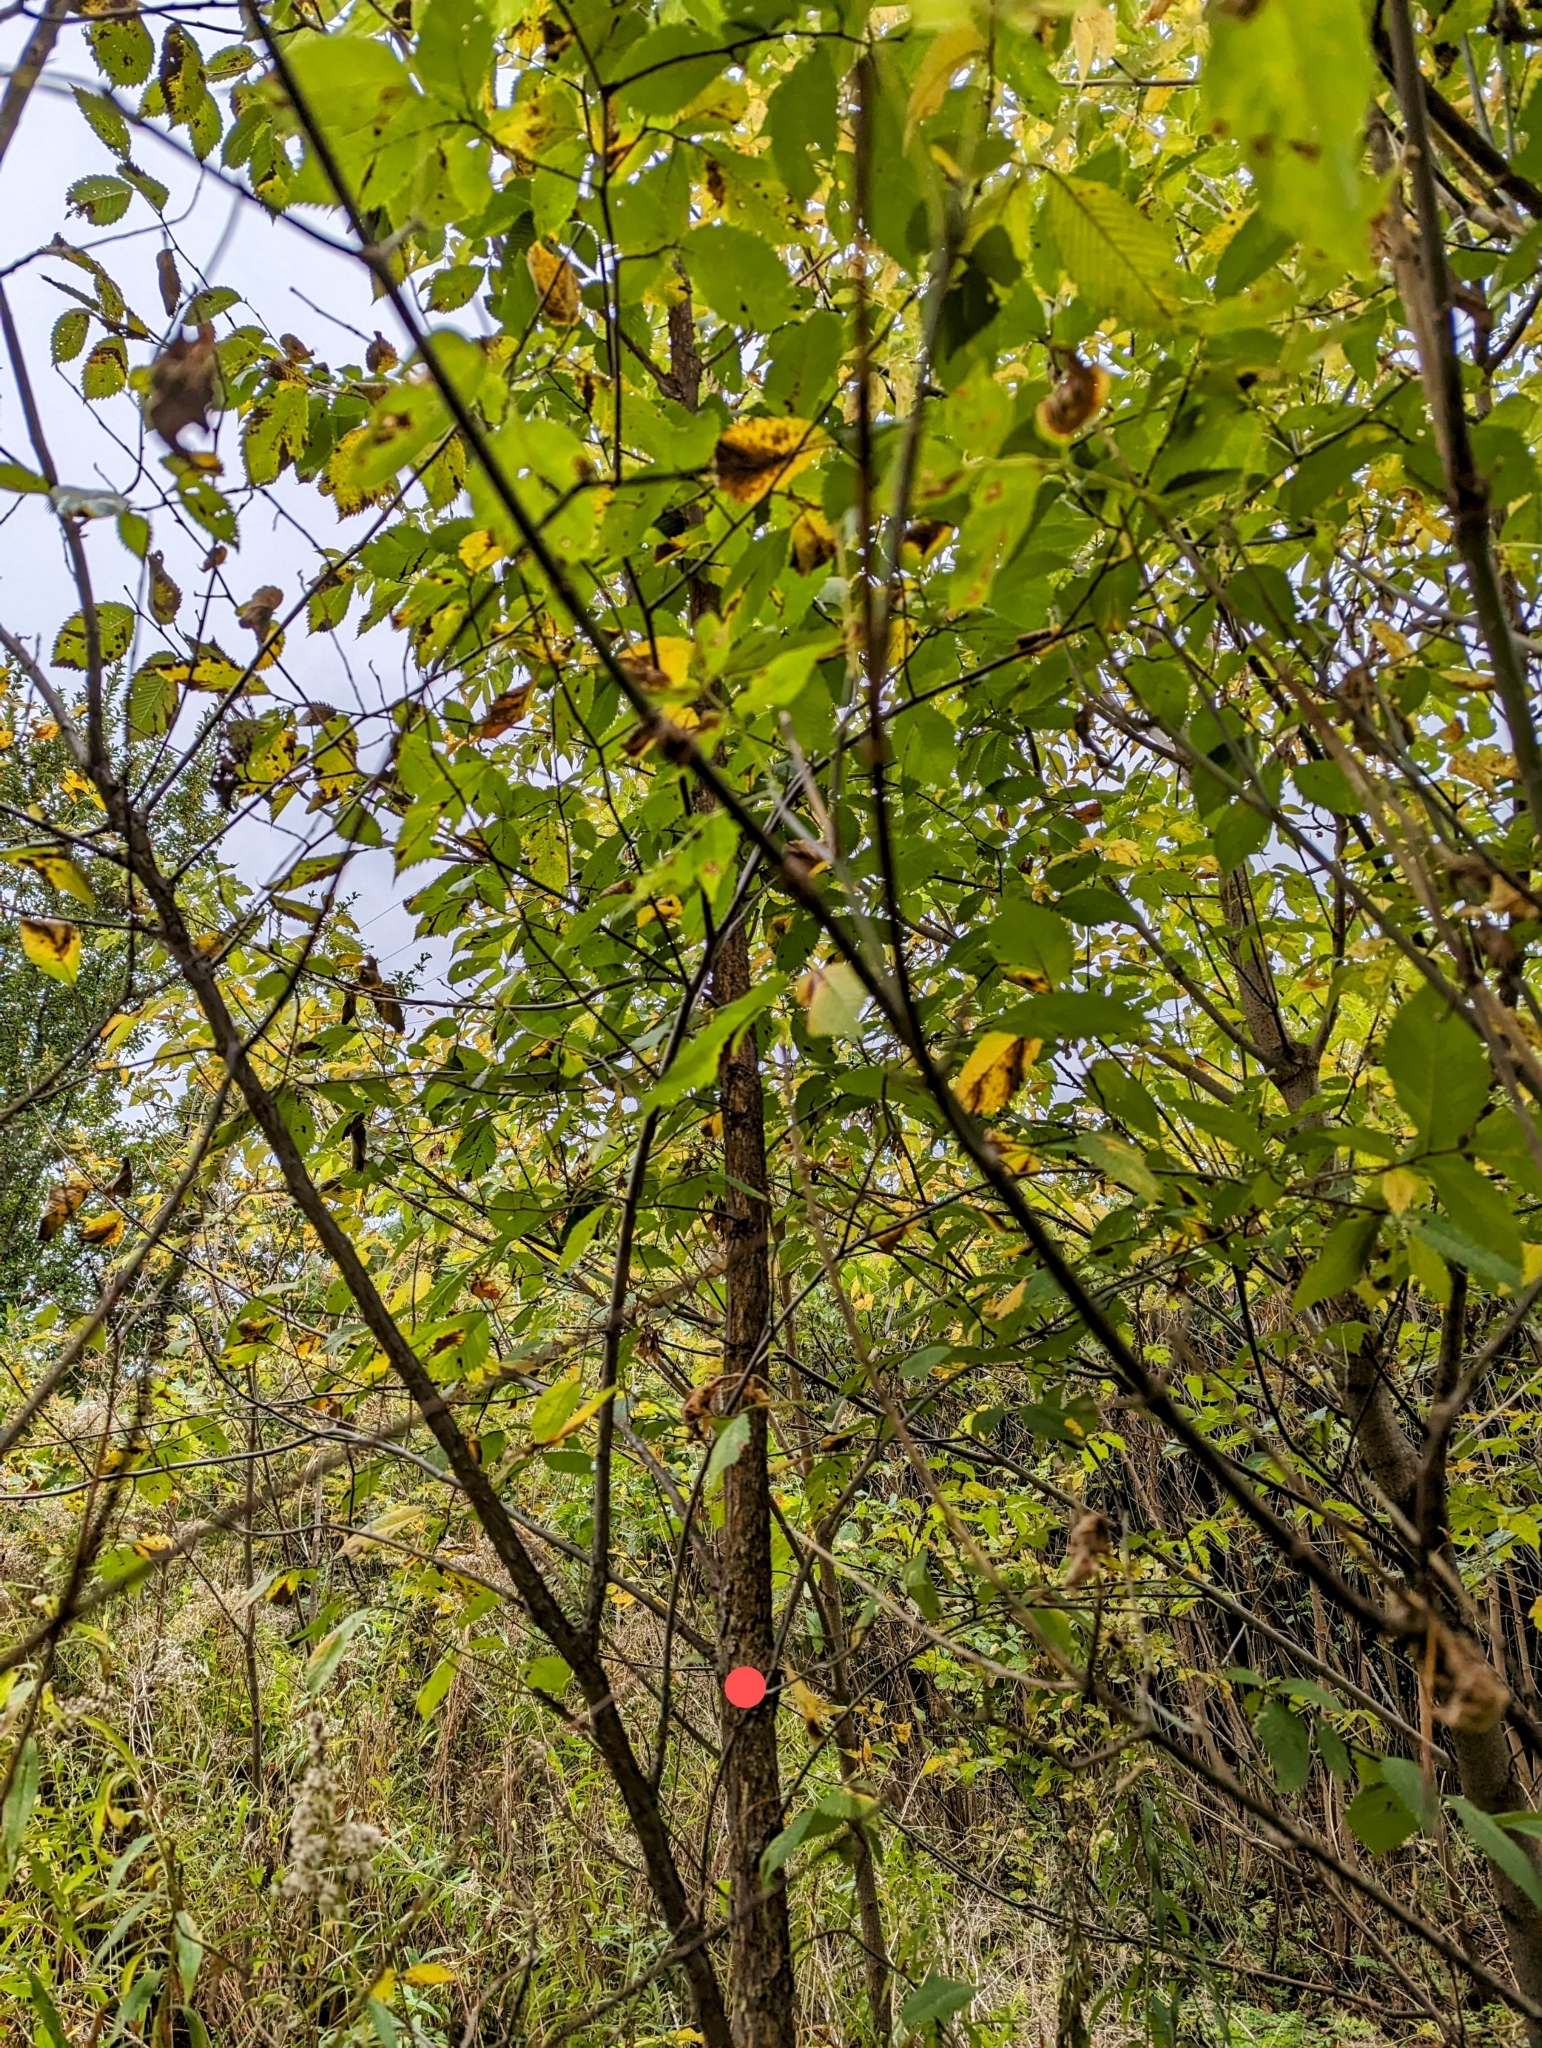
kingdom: Plantae
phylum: Tracheophyta
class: Magnoliopsida
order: Rosales
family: Ulmaceae
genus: Ulmus
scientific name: Ulmus americana
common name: American elm
